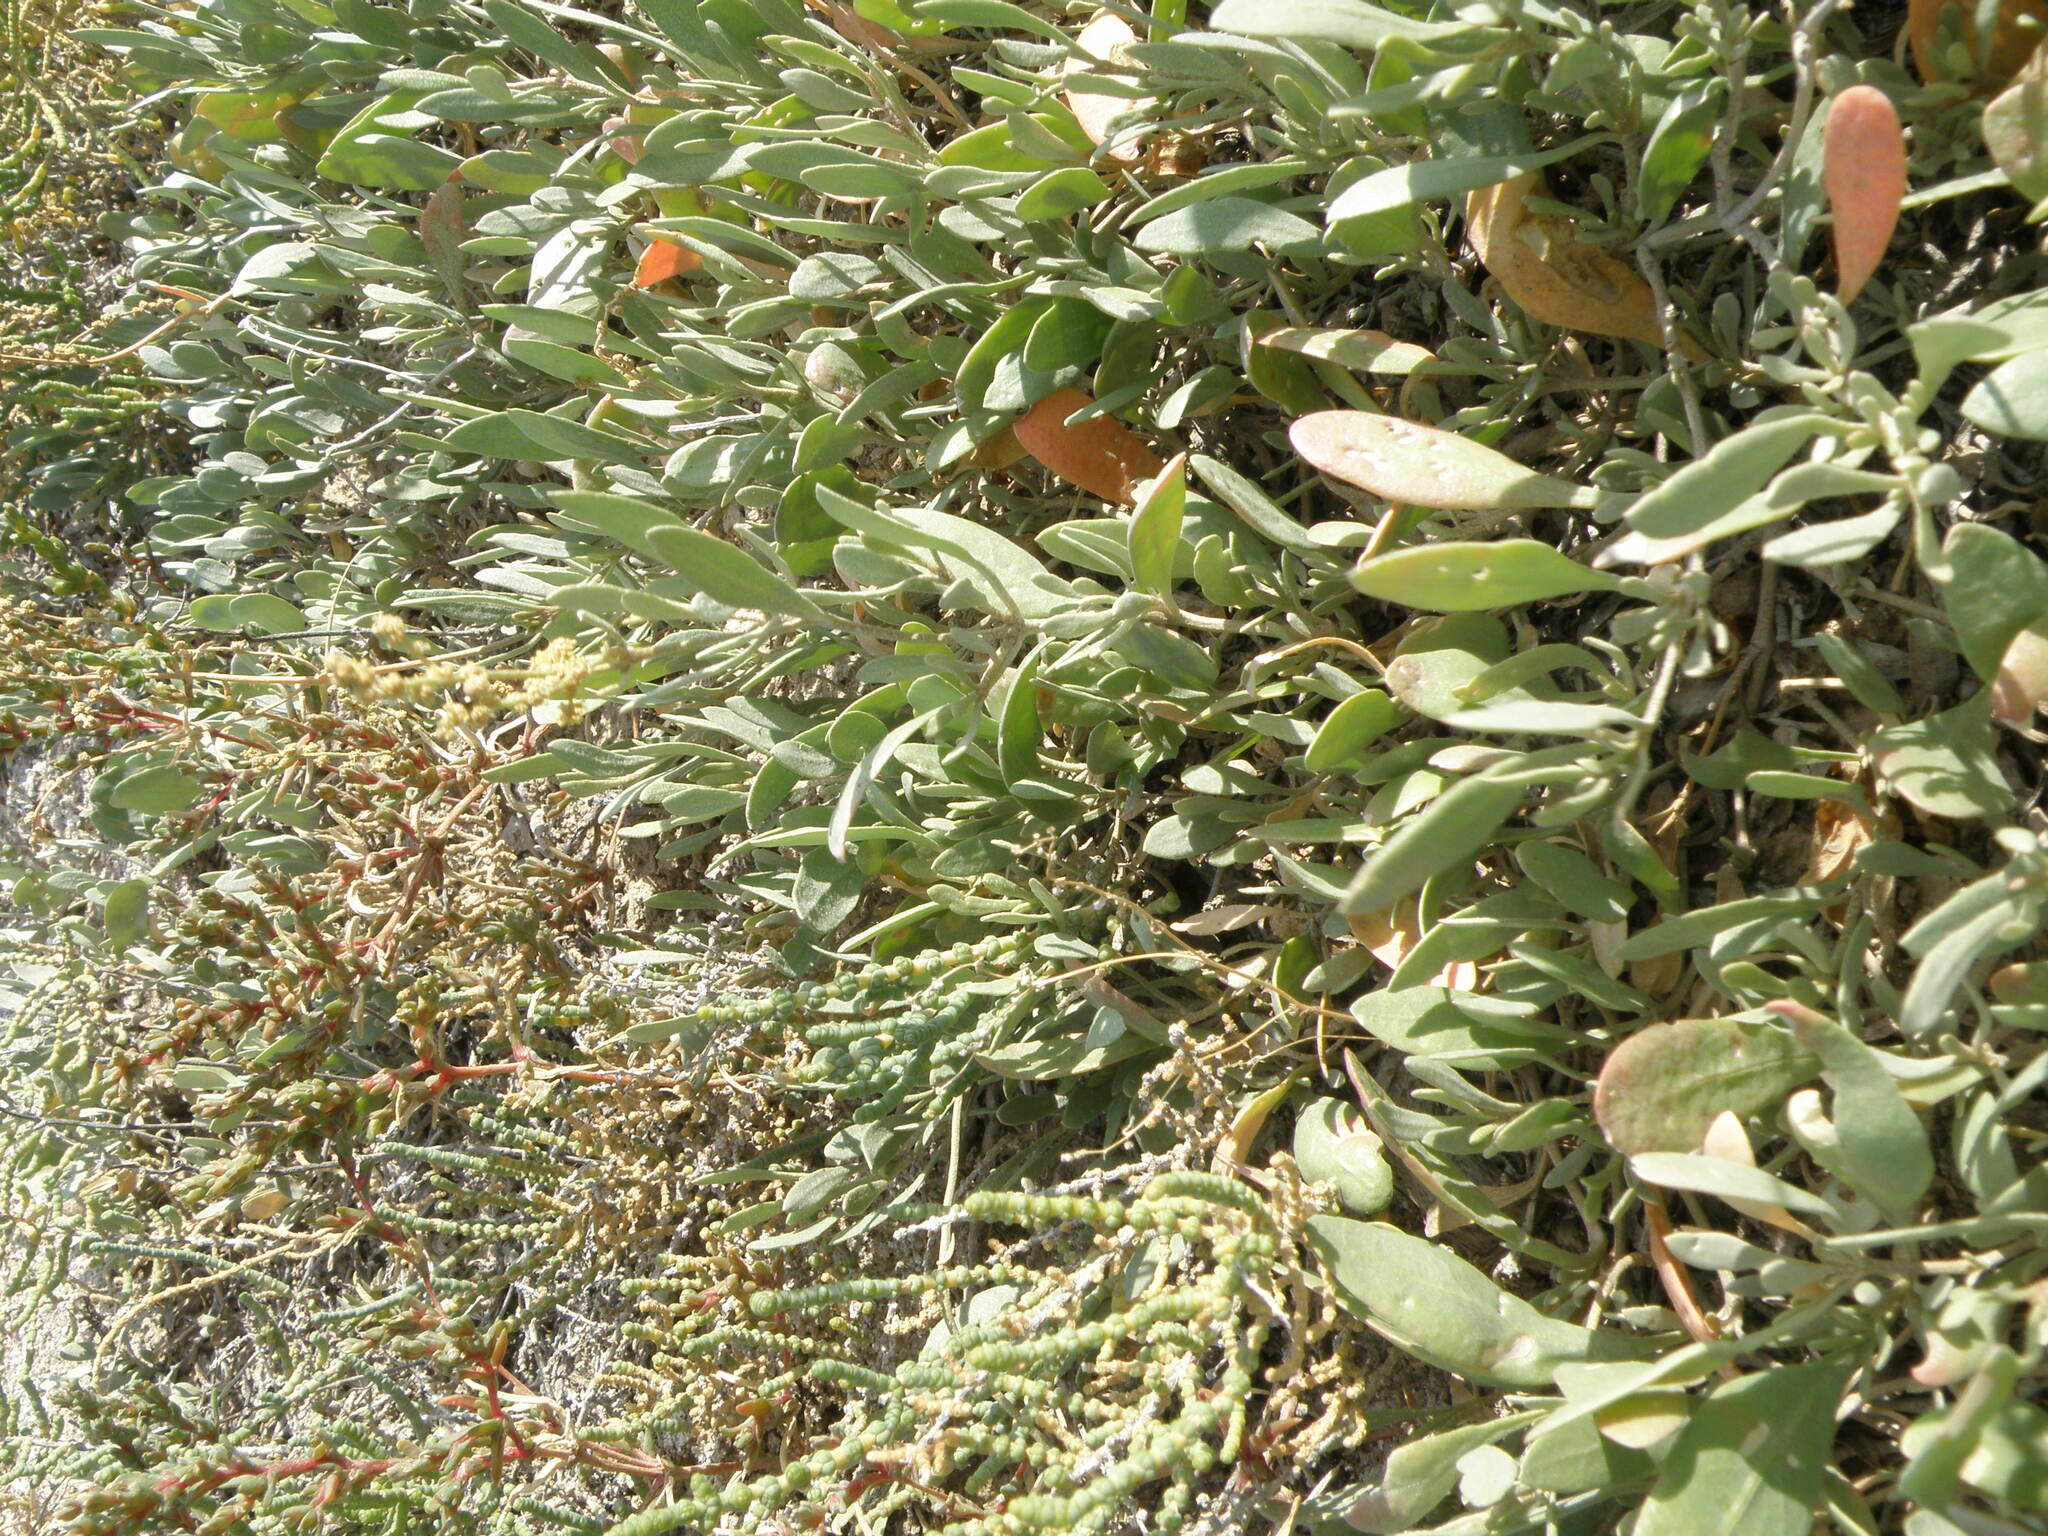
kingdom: Plantae
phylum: Tracheophyta
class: Magnoliopsida
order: Caryophyllales
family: Amaranthaceae
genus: Halimione
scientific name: Halimione verrucifera
